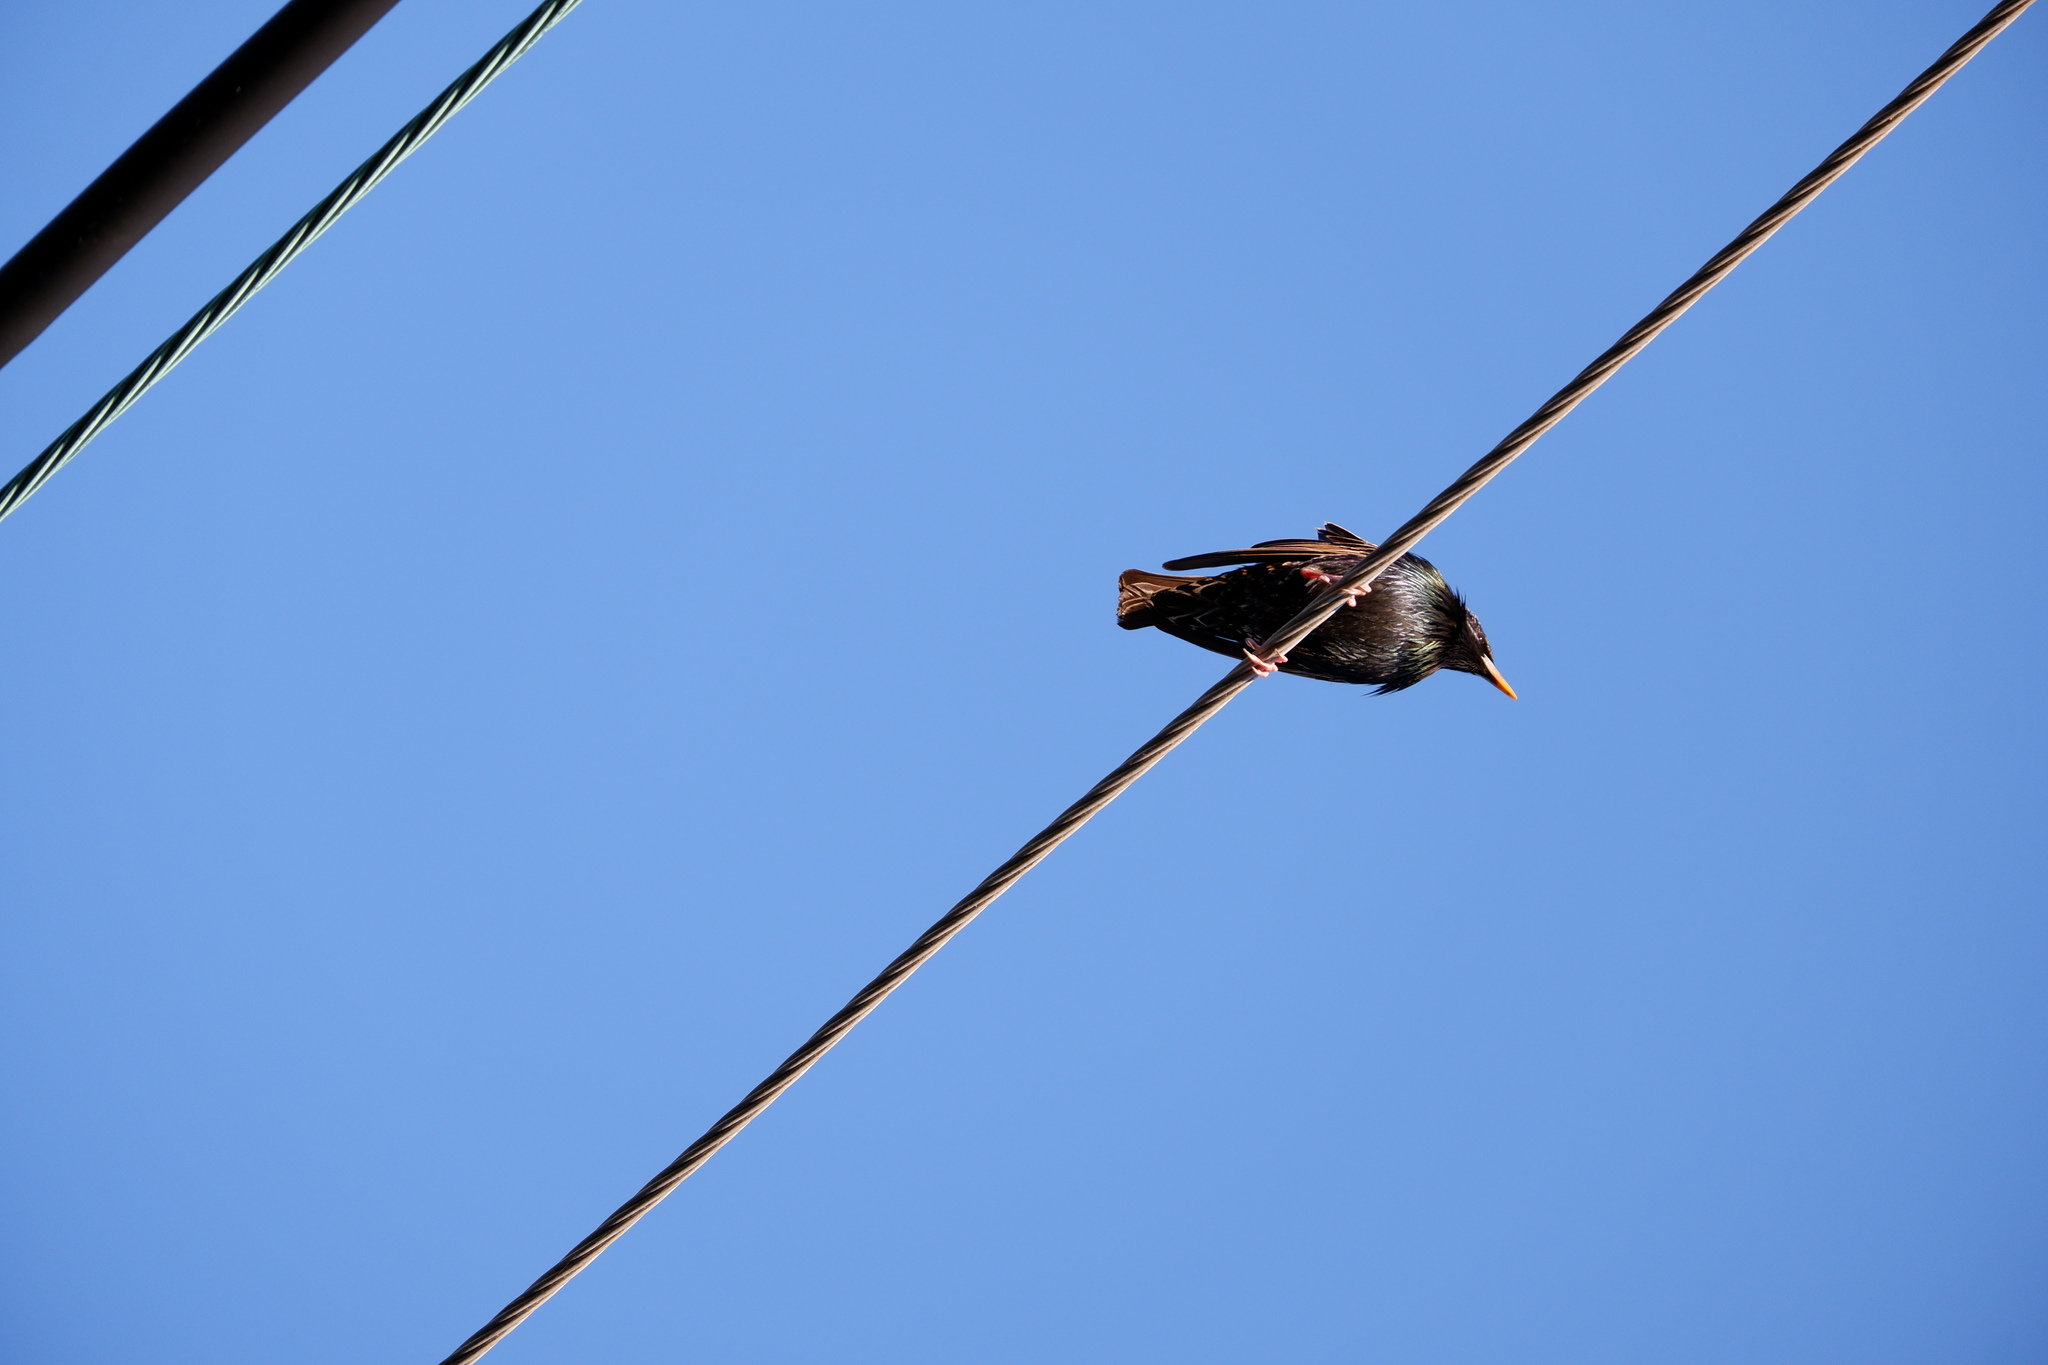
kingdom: Animalia
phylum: Chordata
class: Aves
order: Passeriformes
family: Sturnidae
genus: Sturnus
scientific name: Sturnus vulgaris
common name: Common starling
